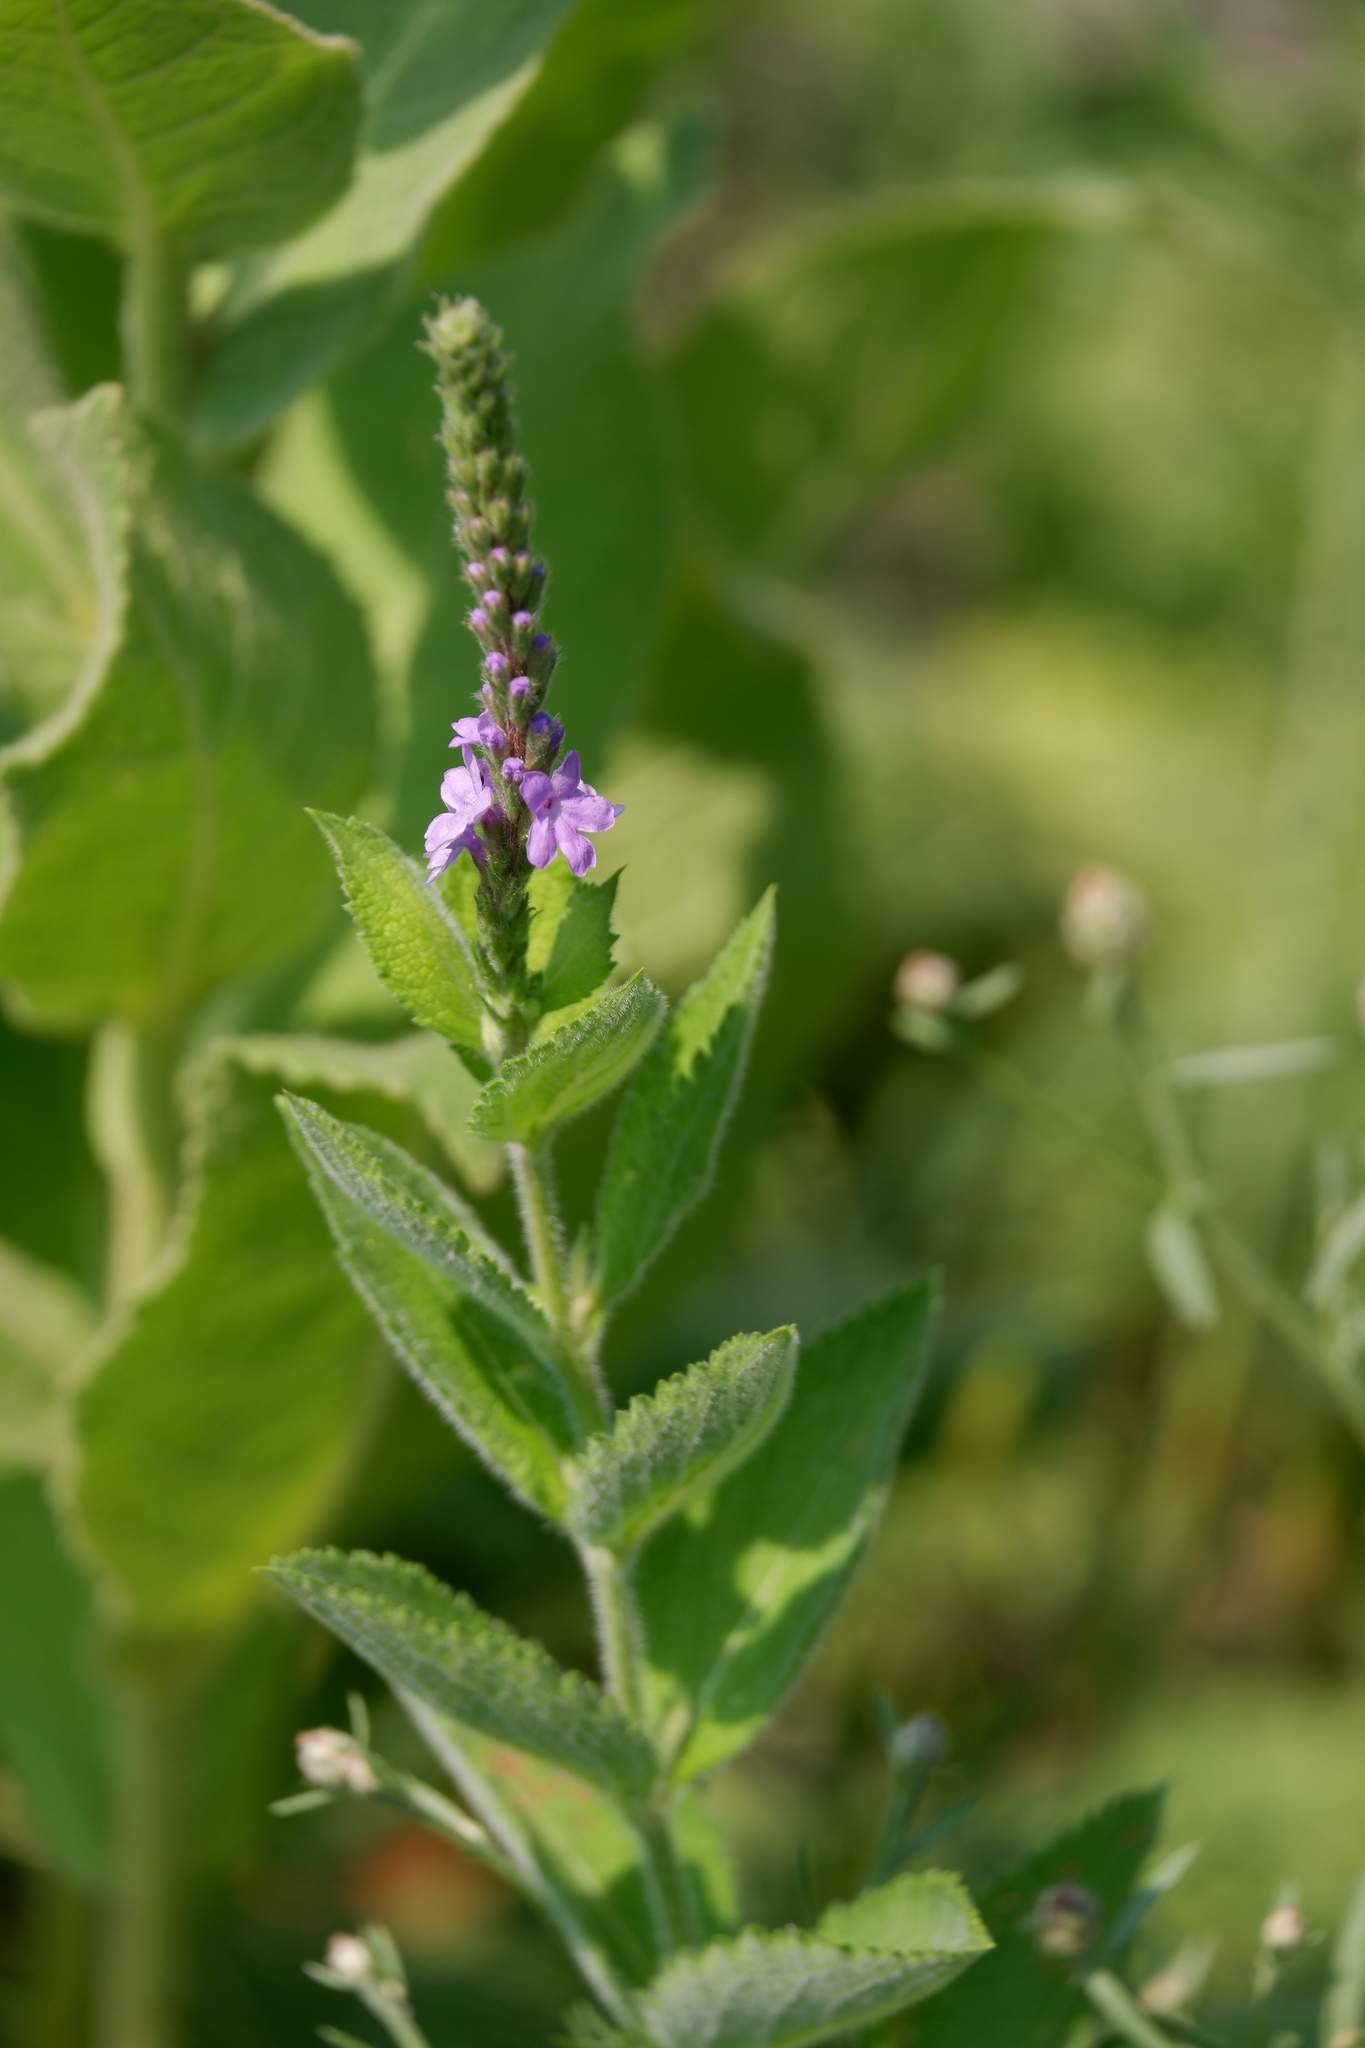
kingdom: Plantae
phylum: Tracheophyta
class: Magnoliopsida
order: Lamiales
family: Verbenaceae
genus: Verbena
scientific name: Verbena stricta
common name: Hoary vervain
